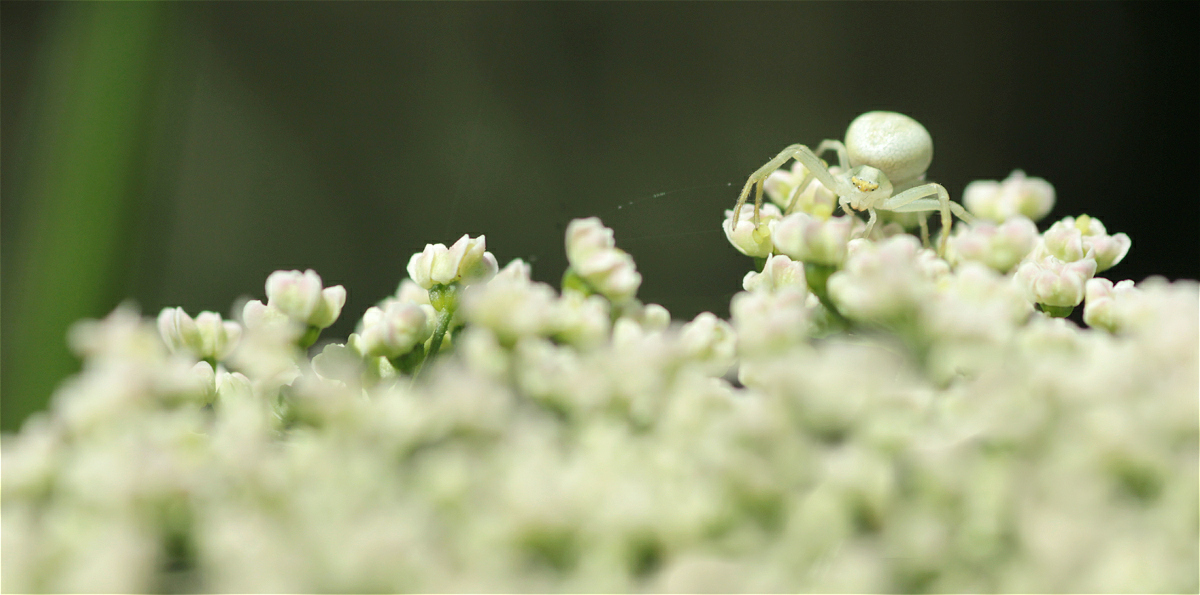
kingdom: Animalia
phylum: Arthropoda
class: Arachnida
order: Araneae
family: Thomisidae
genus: Misumena
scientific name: Misumena vatia
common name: Goldenrod crab spider
